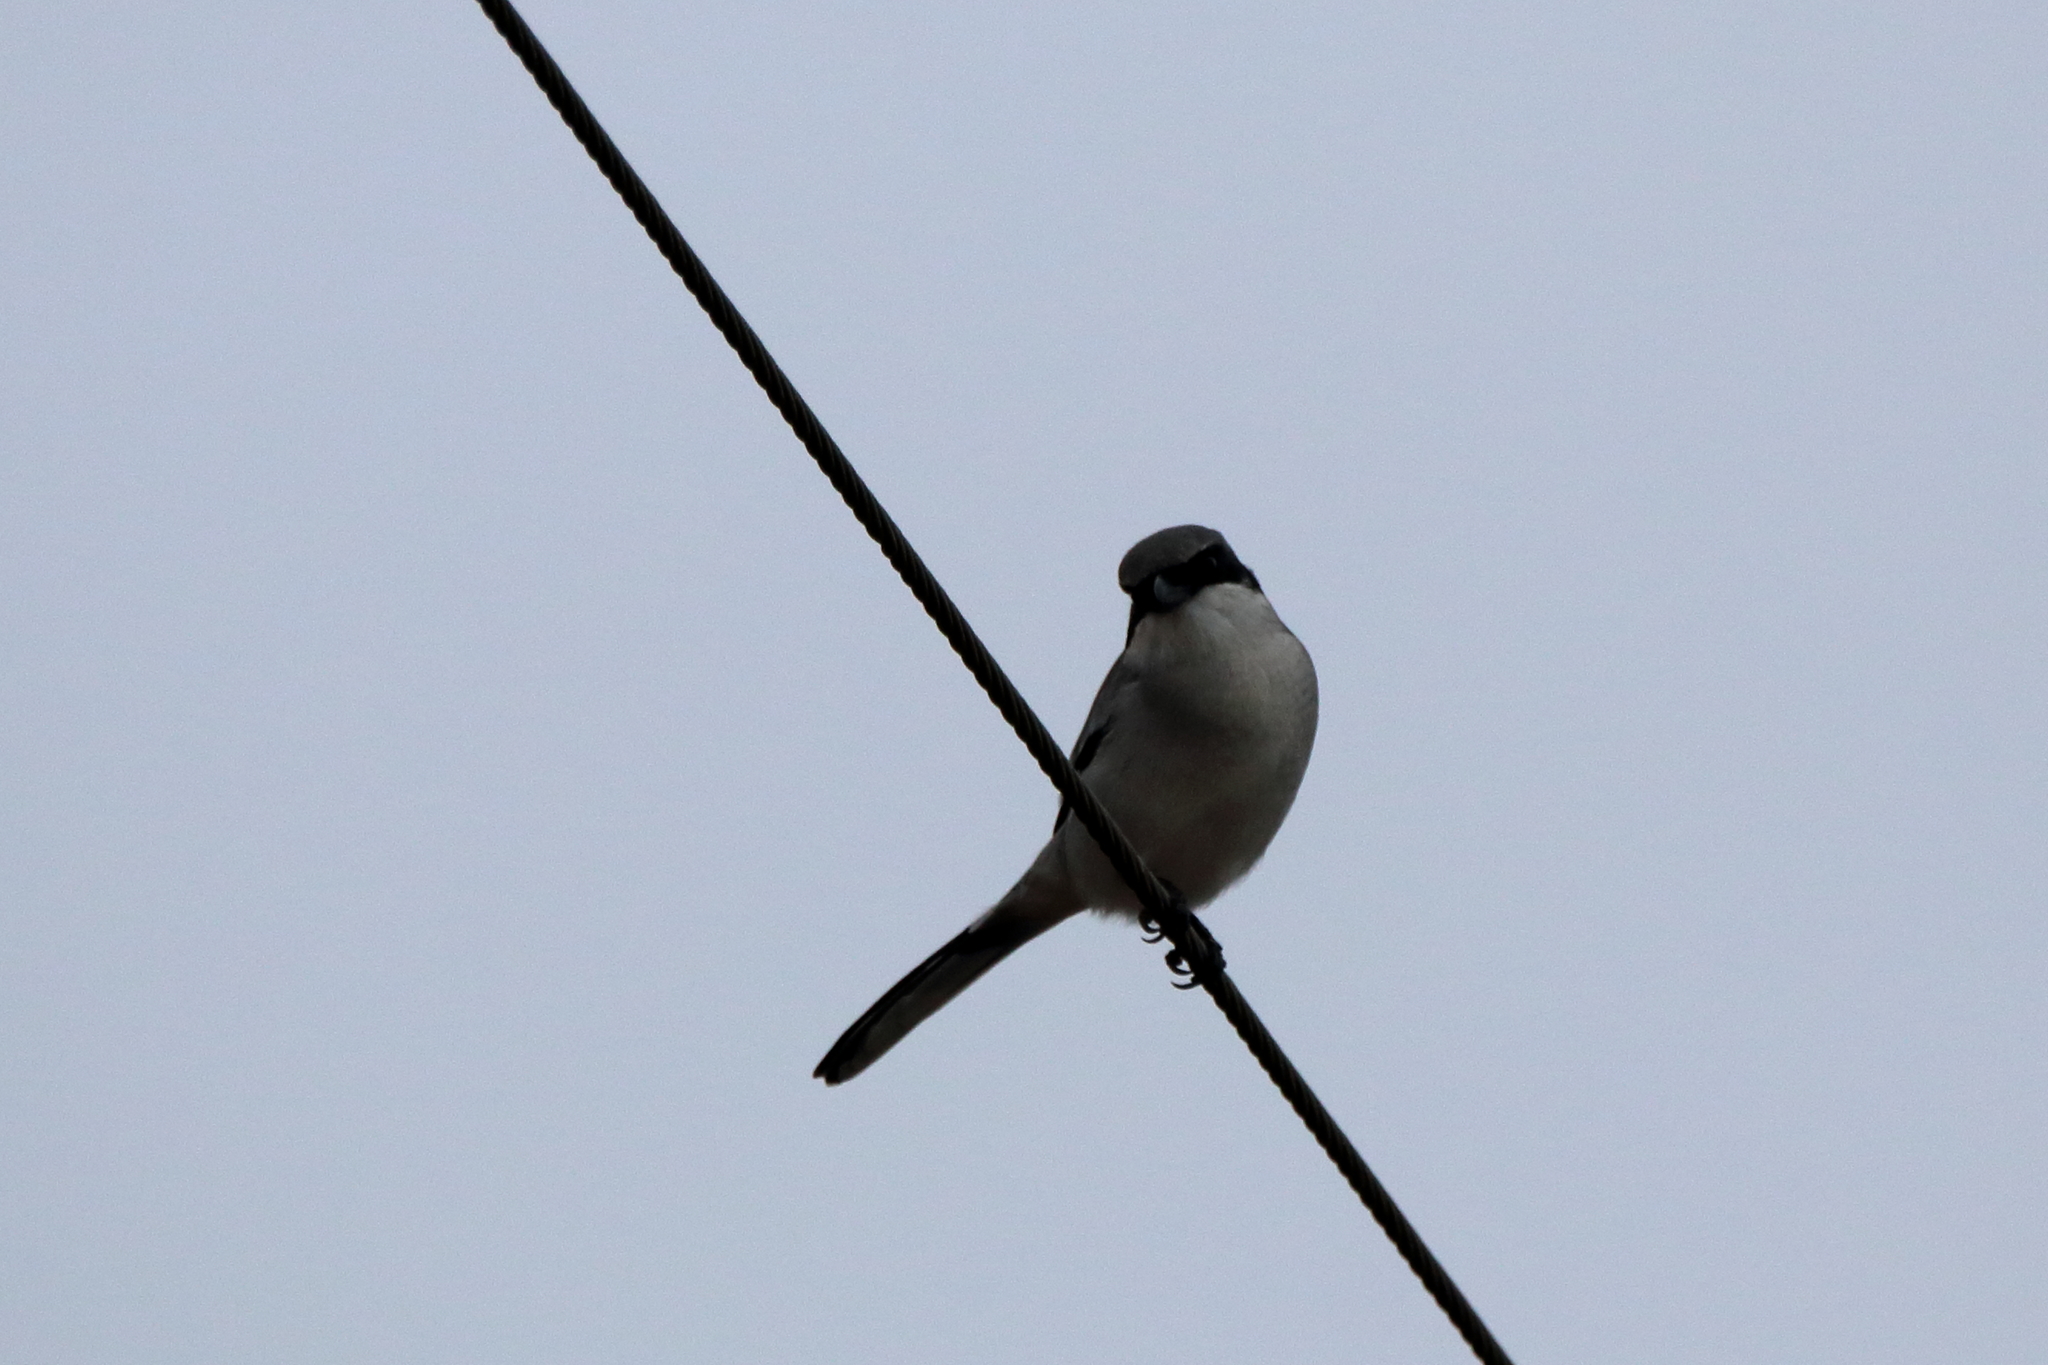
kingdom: Animalia
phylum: Chordata
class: Aves
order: Passeriformes
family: Laniidae
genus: Lanius
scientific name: Lanius ludovicianus
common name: Loggerhead shrike
